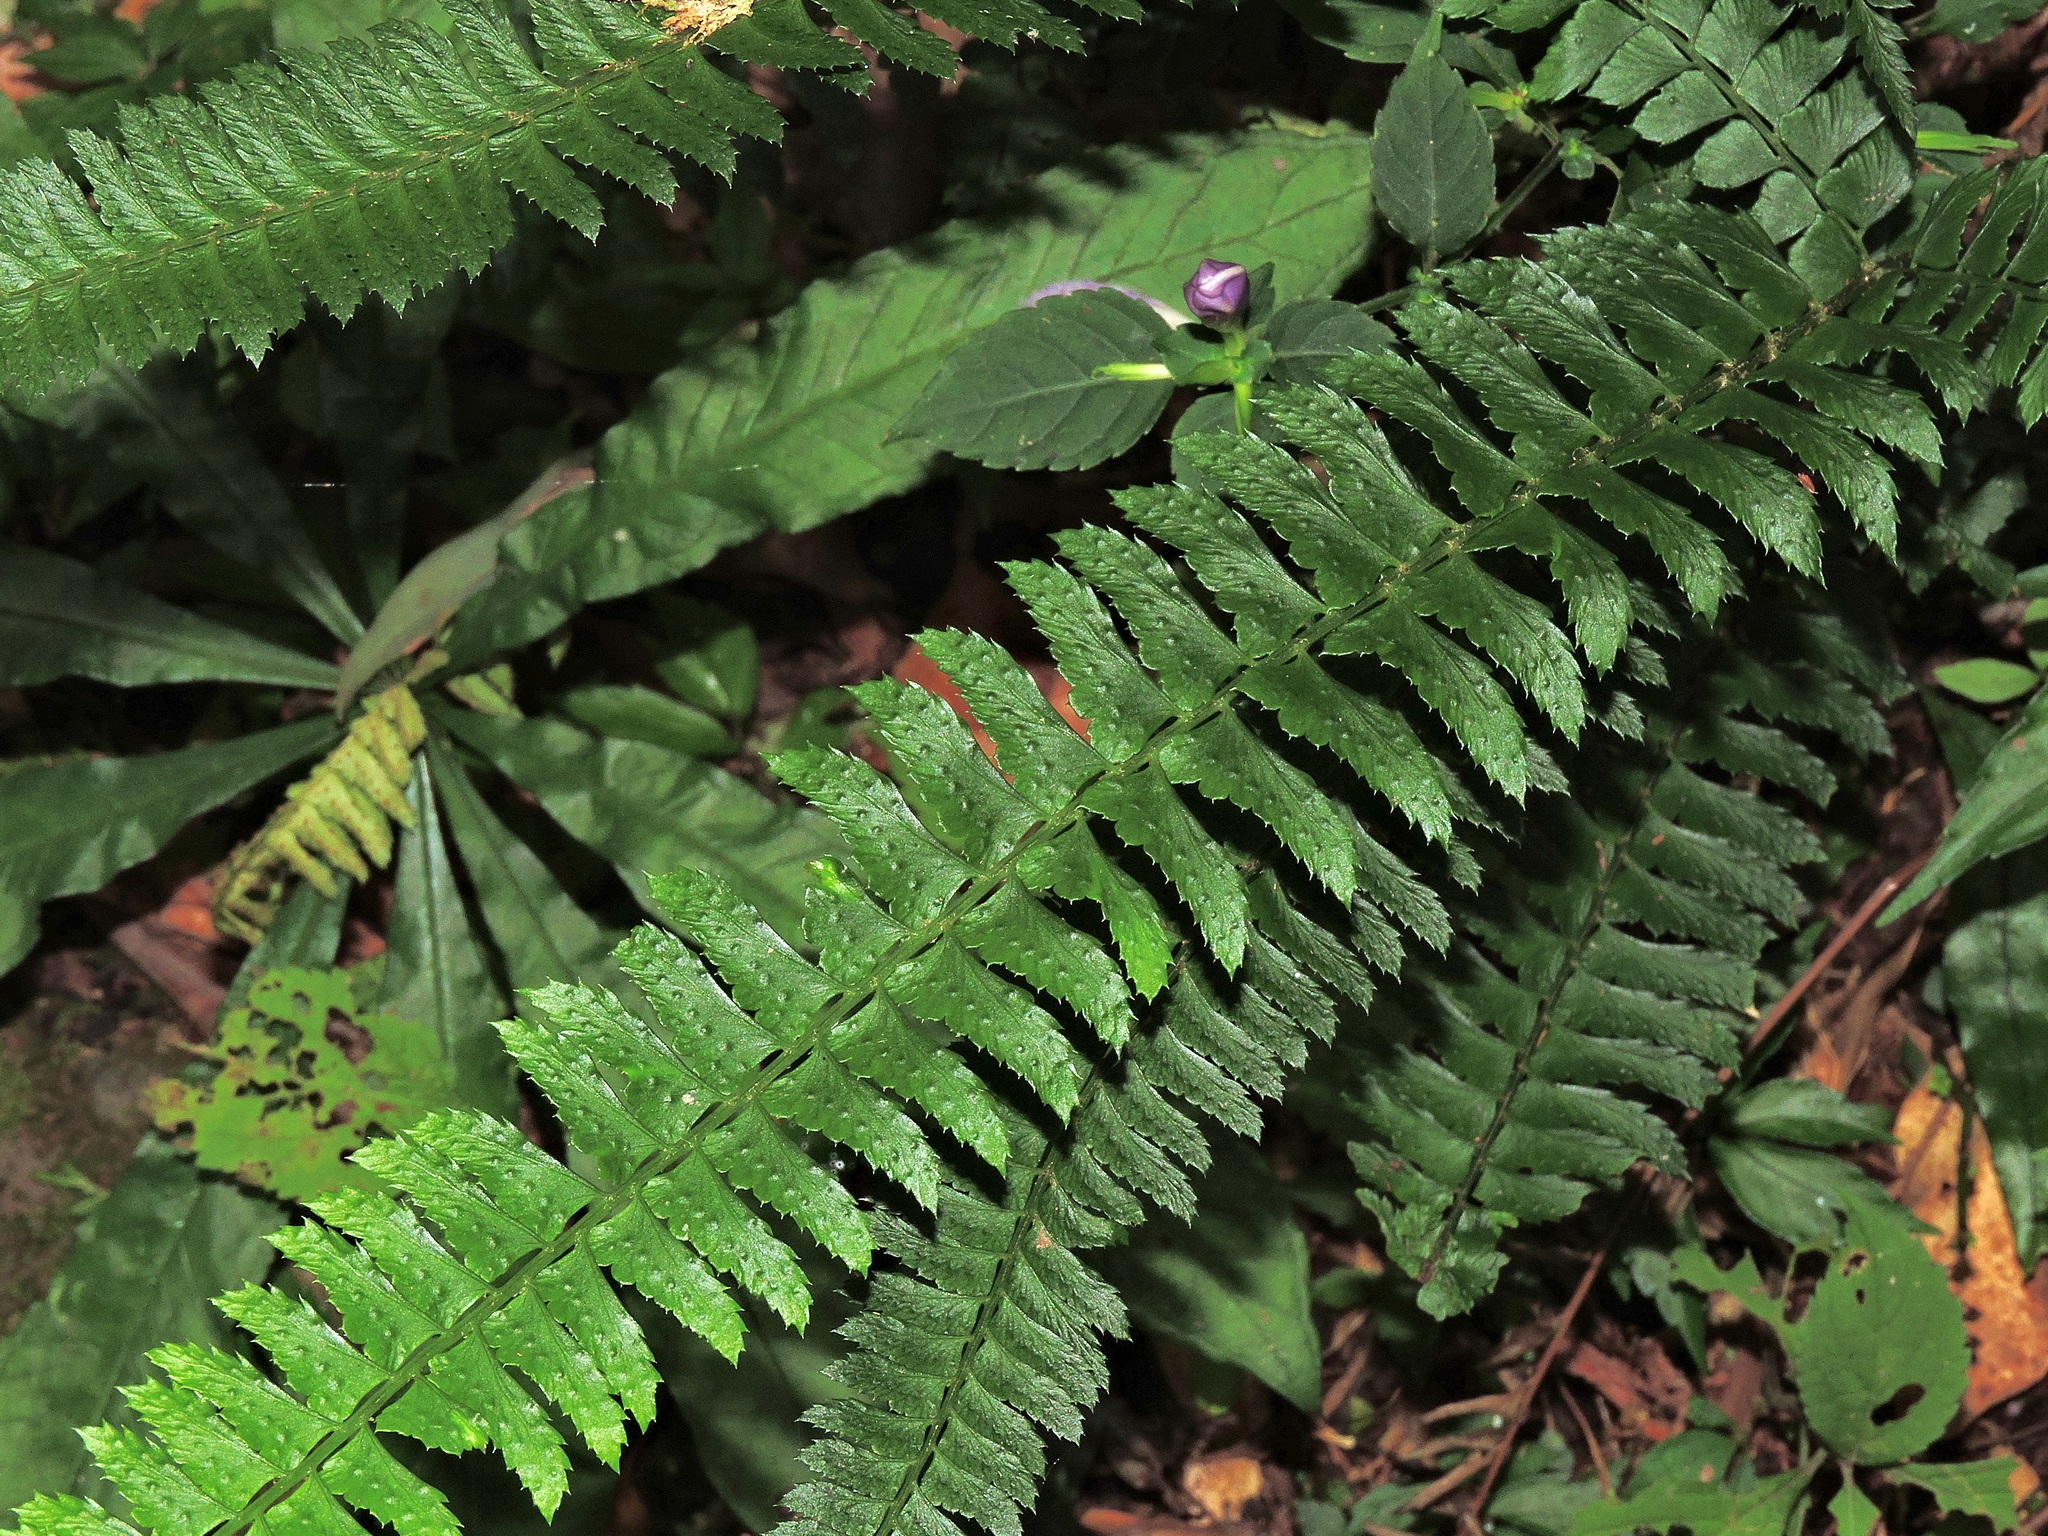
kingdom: Plantae
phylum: Tracheophyta
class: Polypodiopsida
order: Polypodiales
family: Dryopteridaceae
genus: Polystichum
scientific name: Polystichum hancockii
